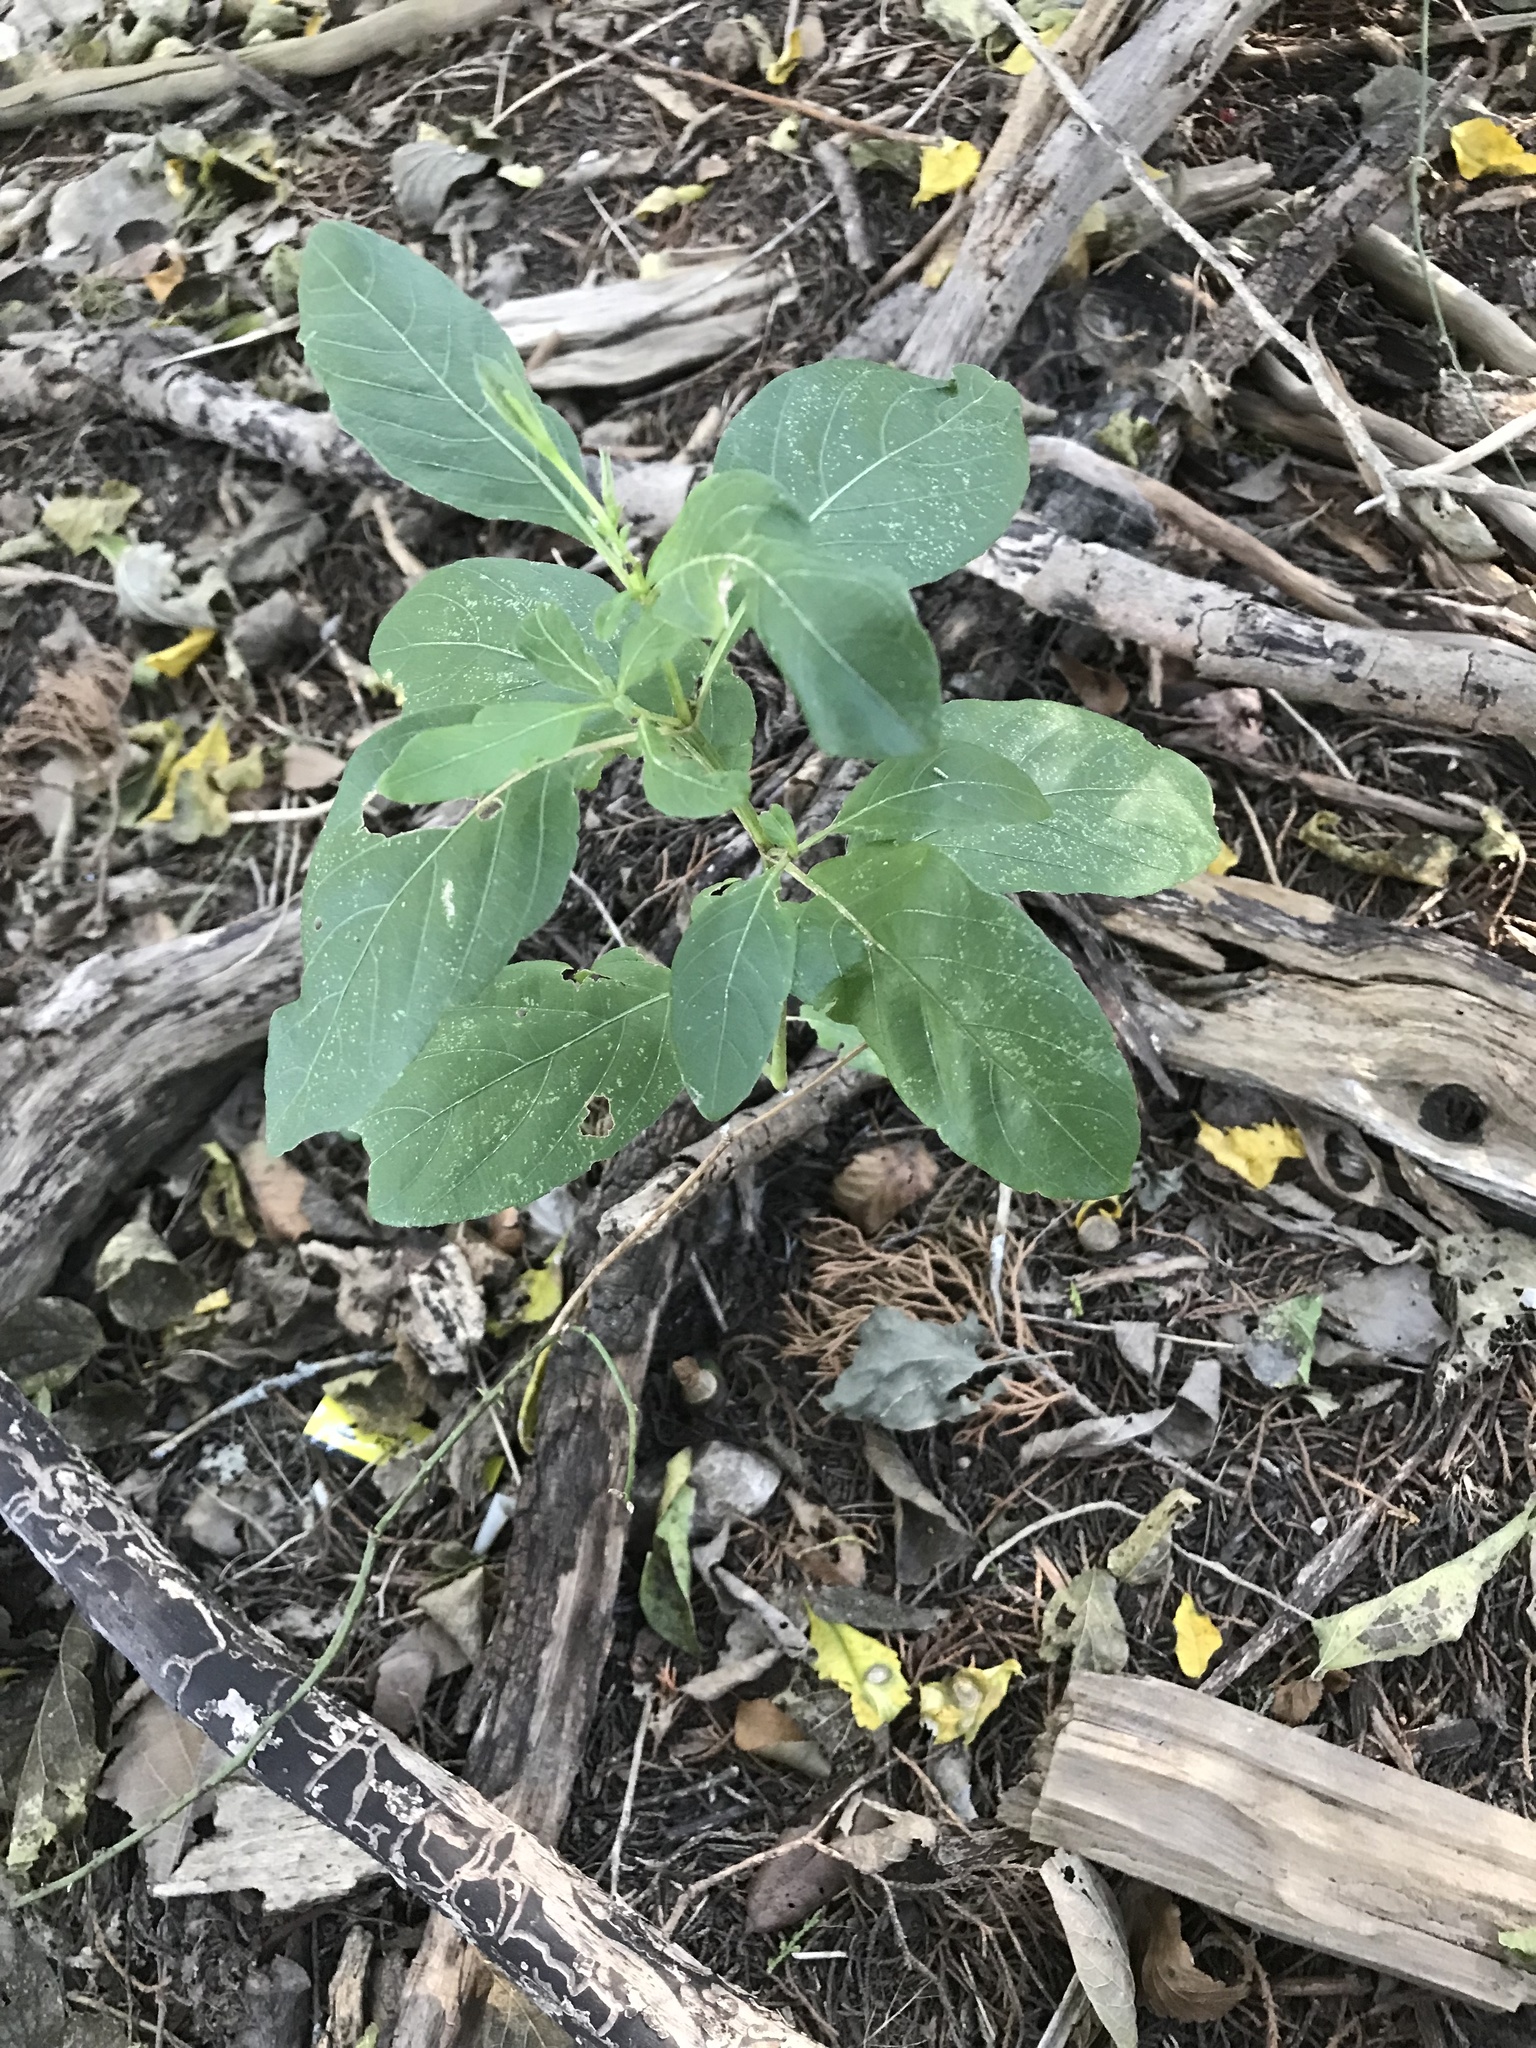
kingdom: Plantae
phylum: Tracheophyta
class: Magnoliopsida
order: Lamiales
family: Acanthaceae
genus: Ruellia
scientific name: Ruellia ciliatiflora
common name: Hairyflower wild petunia
